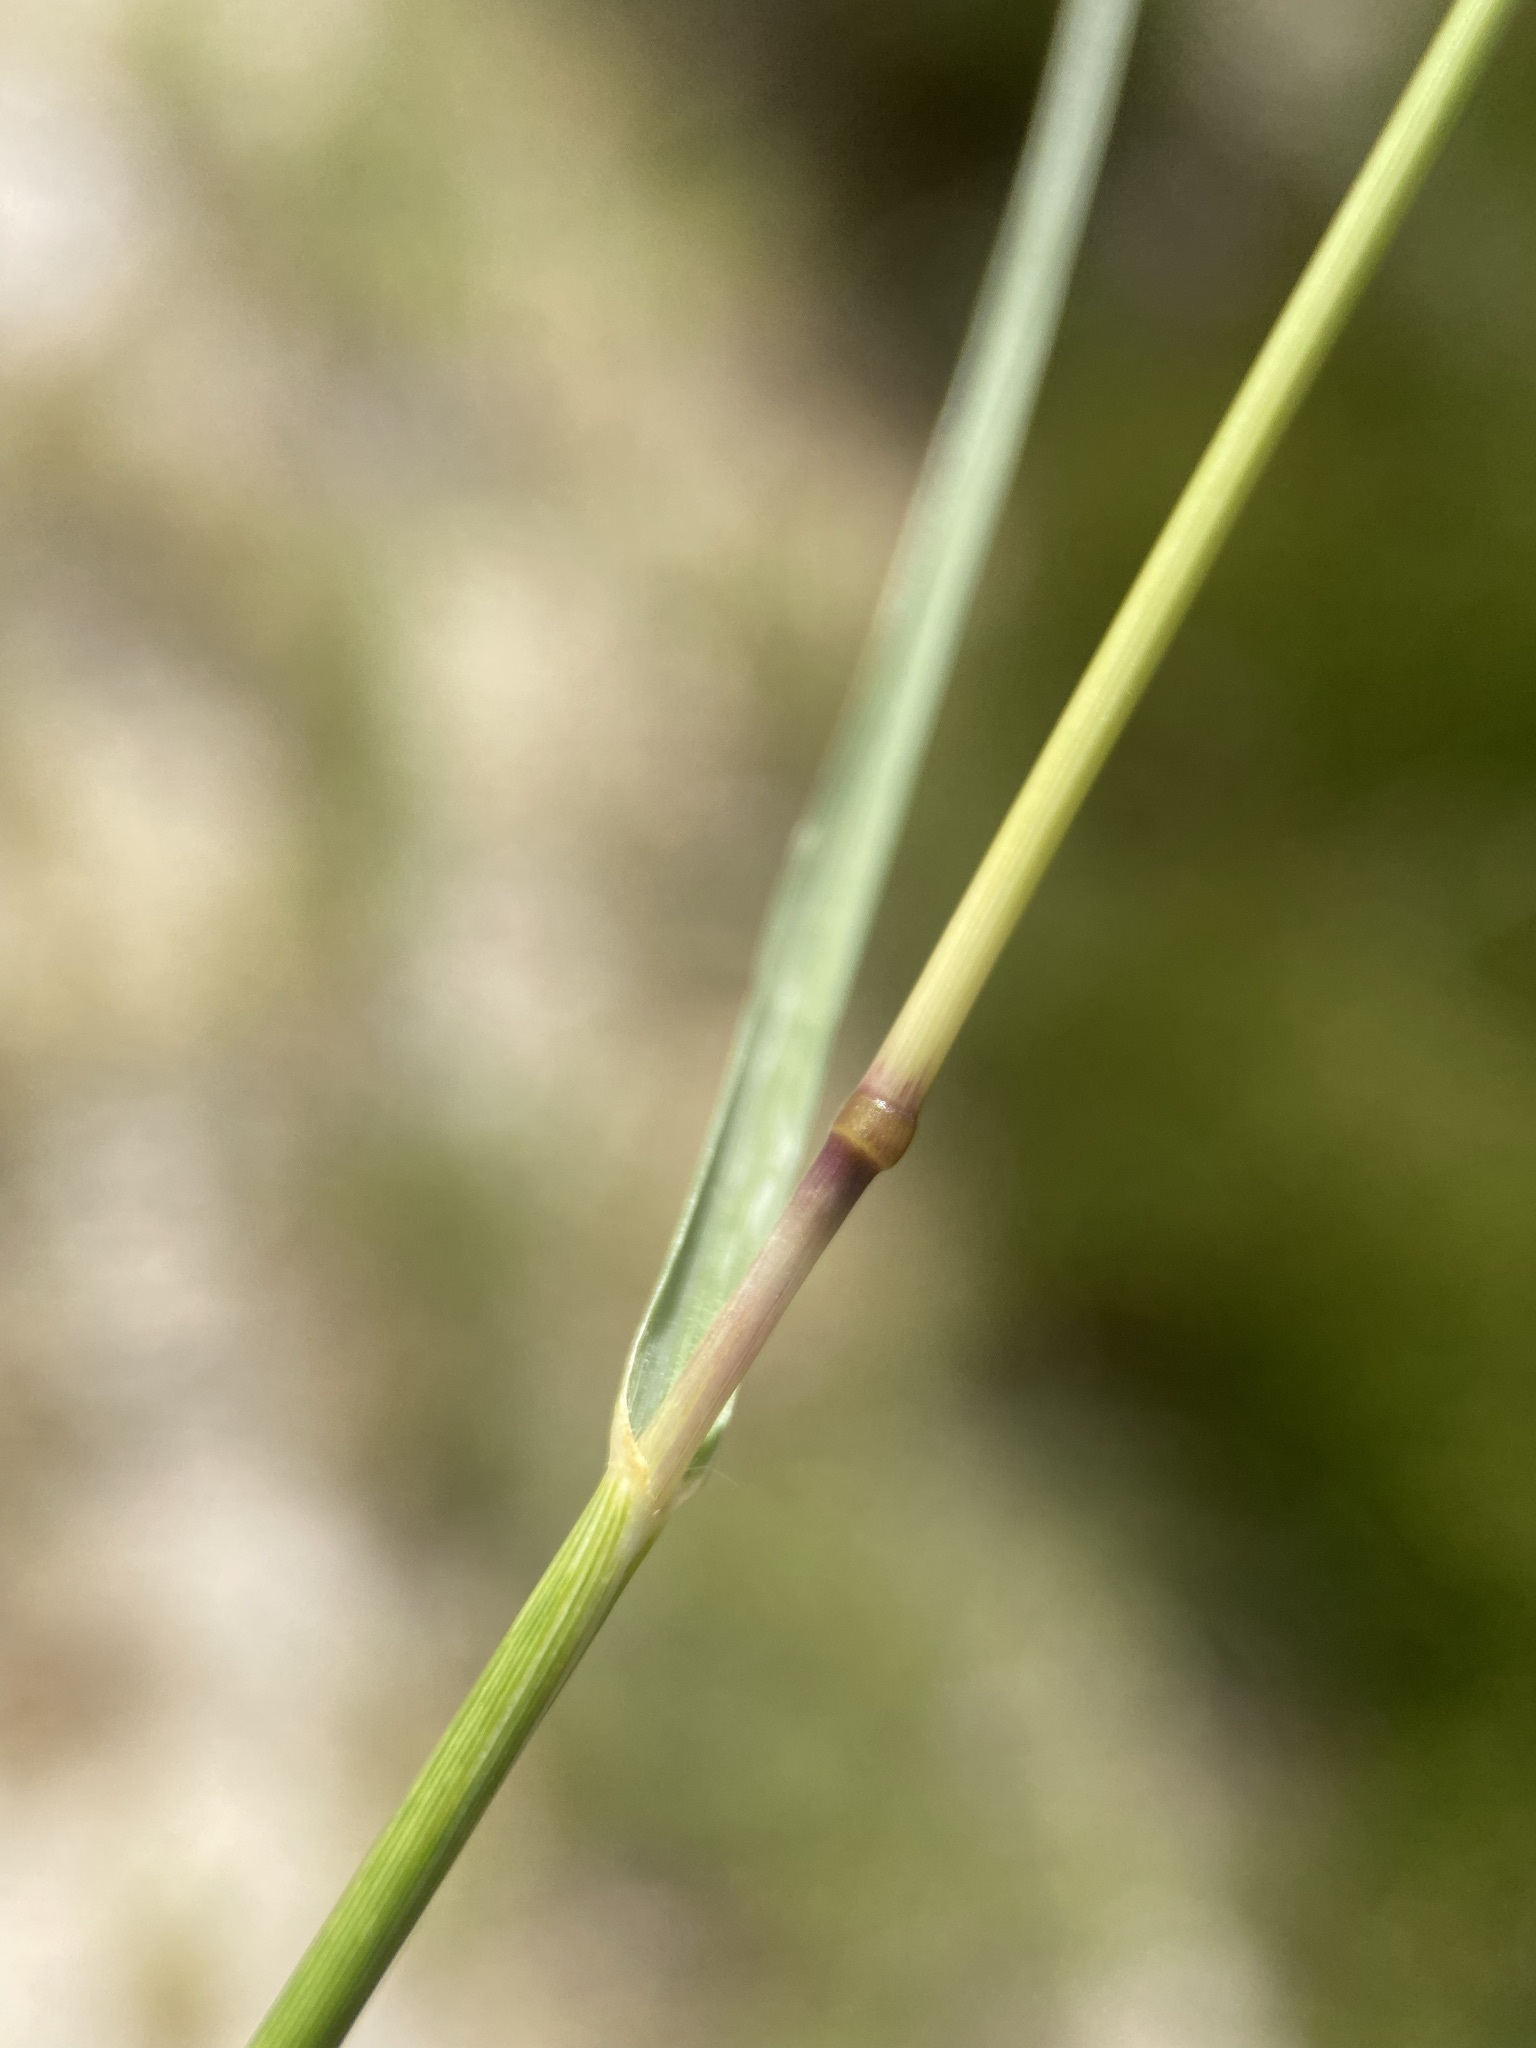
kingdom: Plantae
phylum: Tracheophyta
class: Liliopsida
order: Poales
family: Poaceae
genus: Sporobolus
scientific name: Sporobolus airoides
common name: Alkali sacaton
